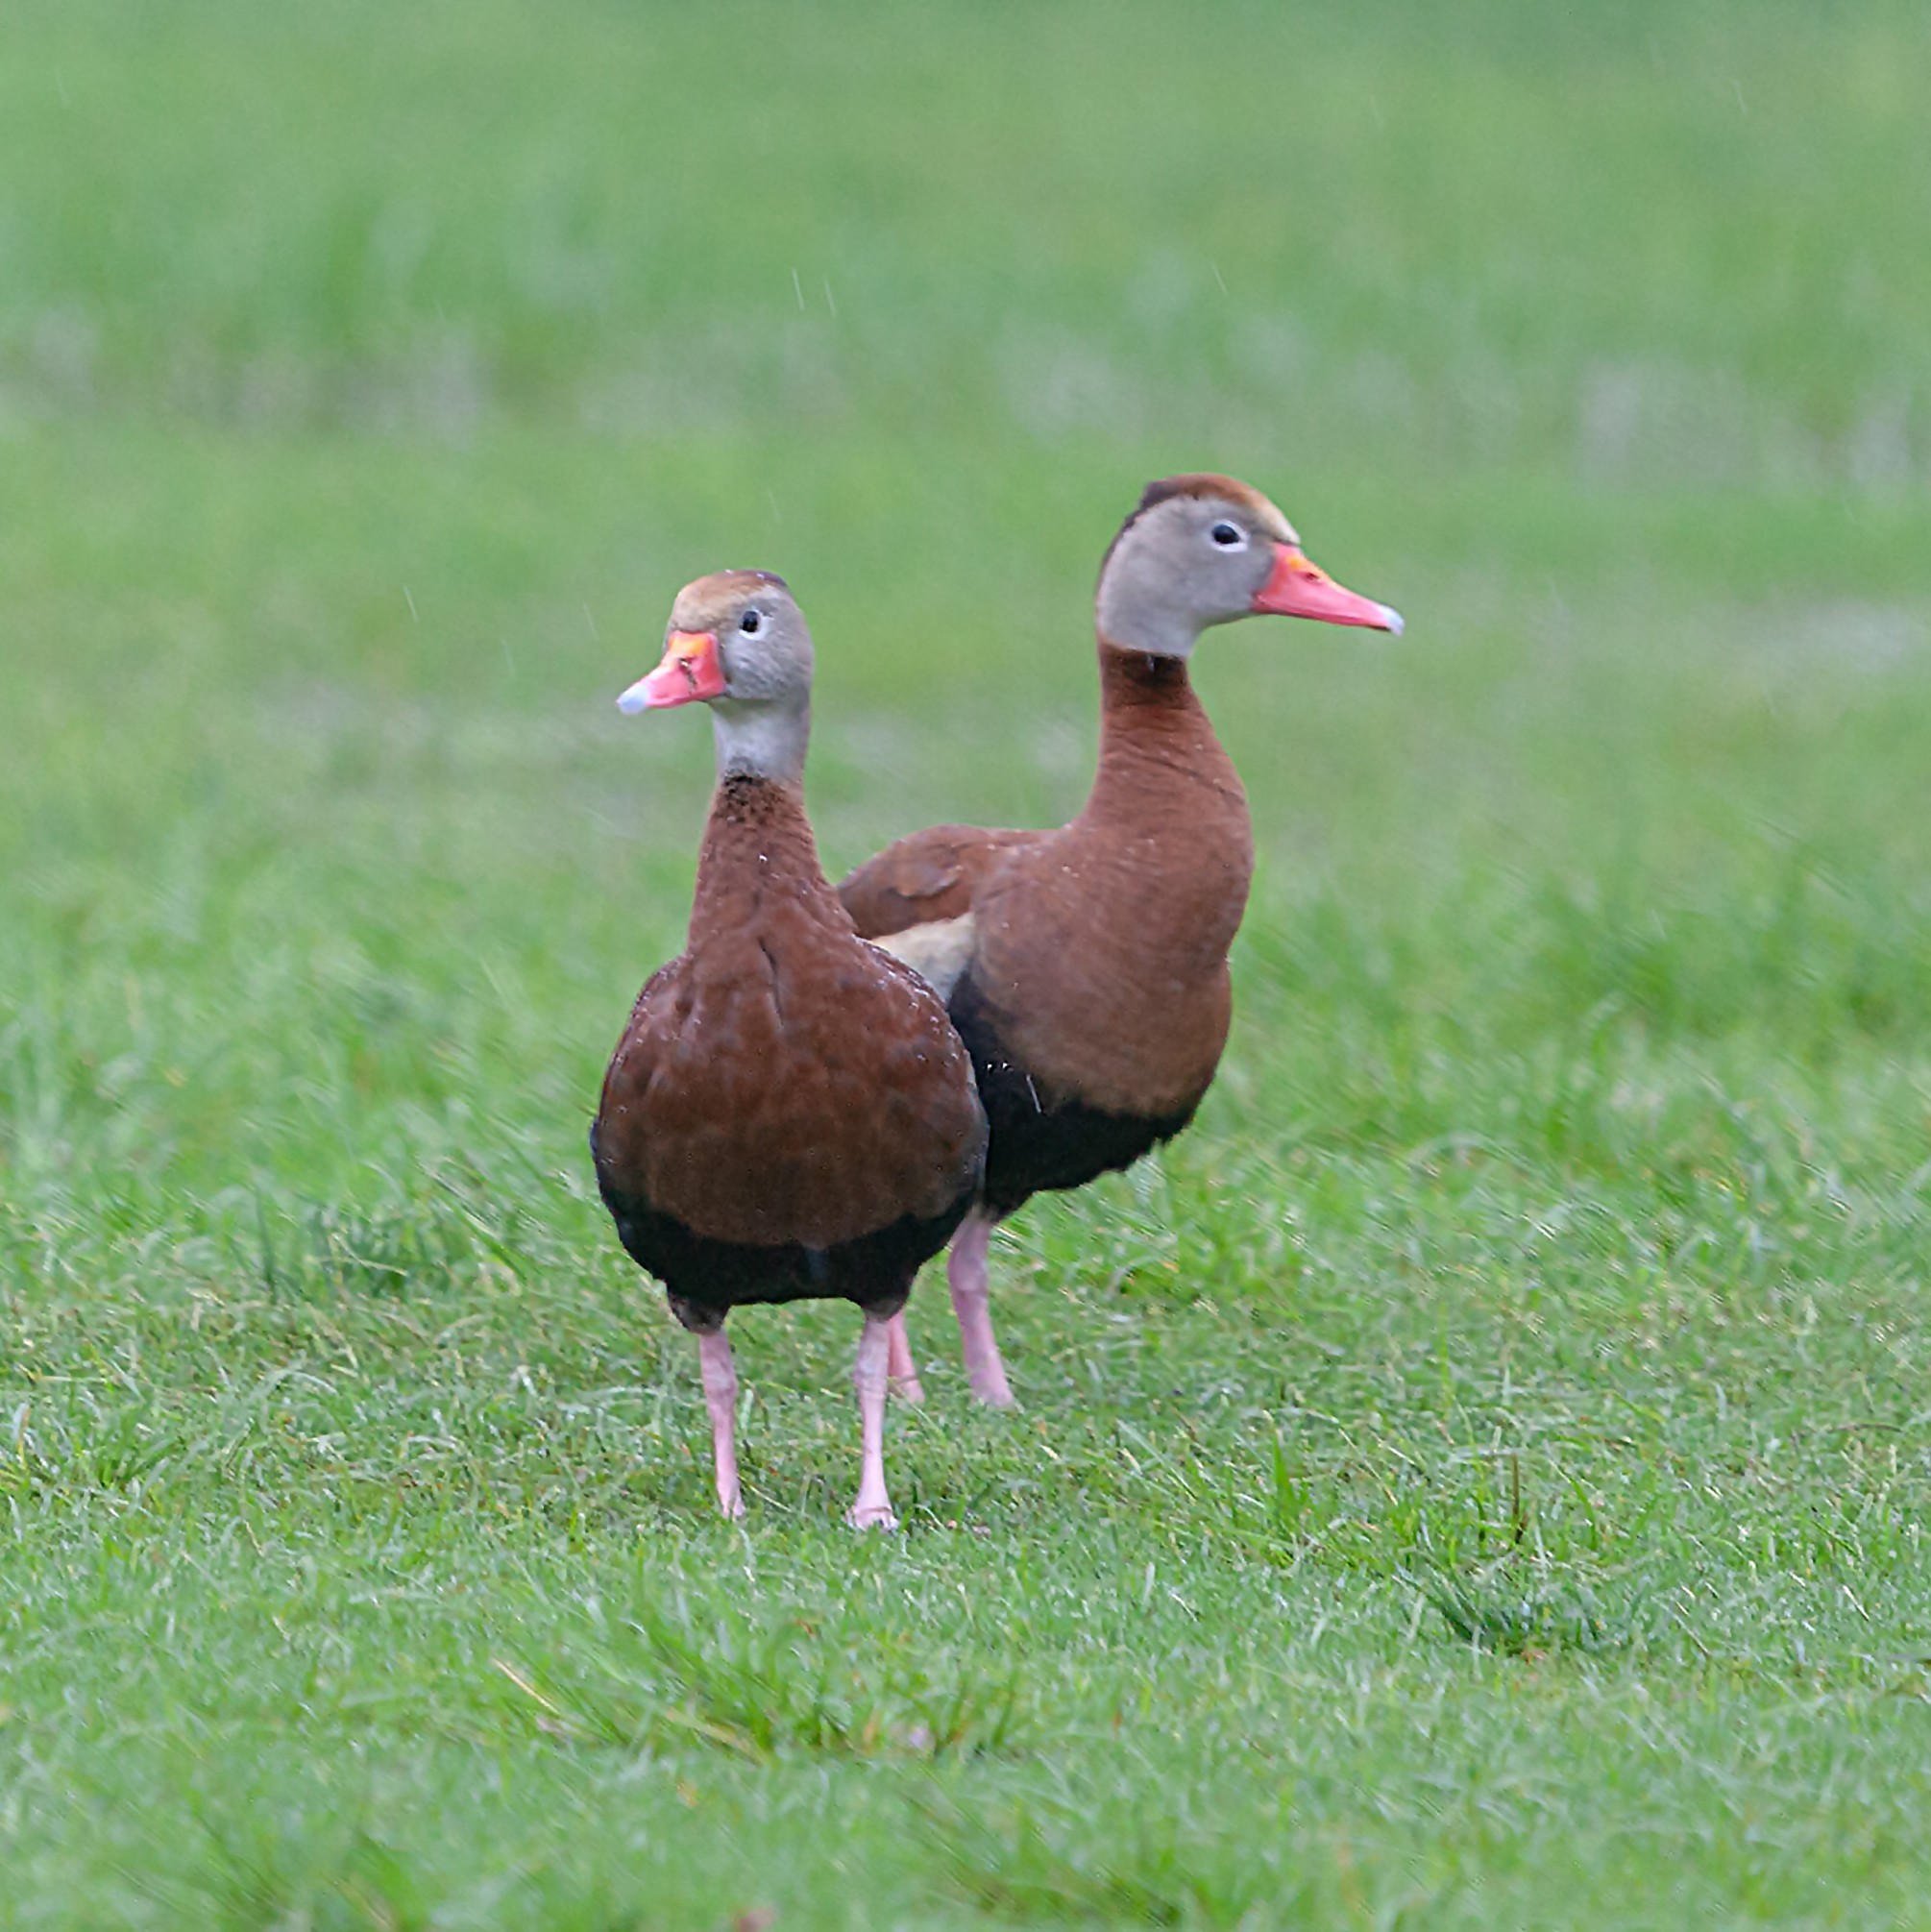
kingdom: Animalia
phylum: Chordata
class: Aves
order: Anseriformes
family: Anatidae
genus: Dendrocygna
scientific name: Dendrocygna autumnalis
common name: Black-bellied whistling duck
